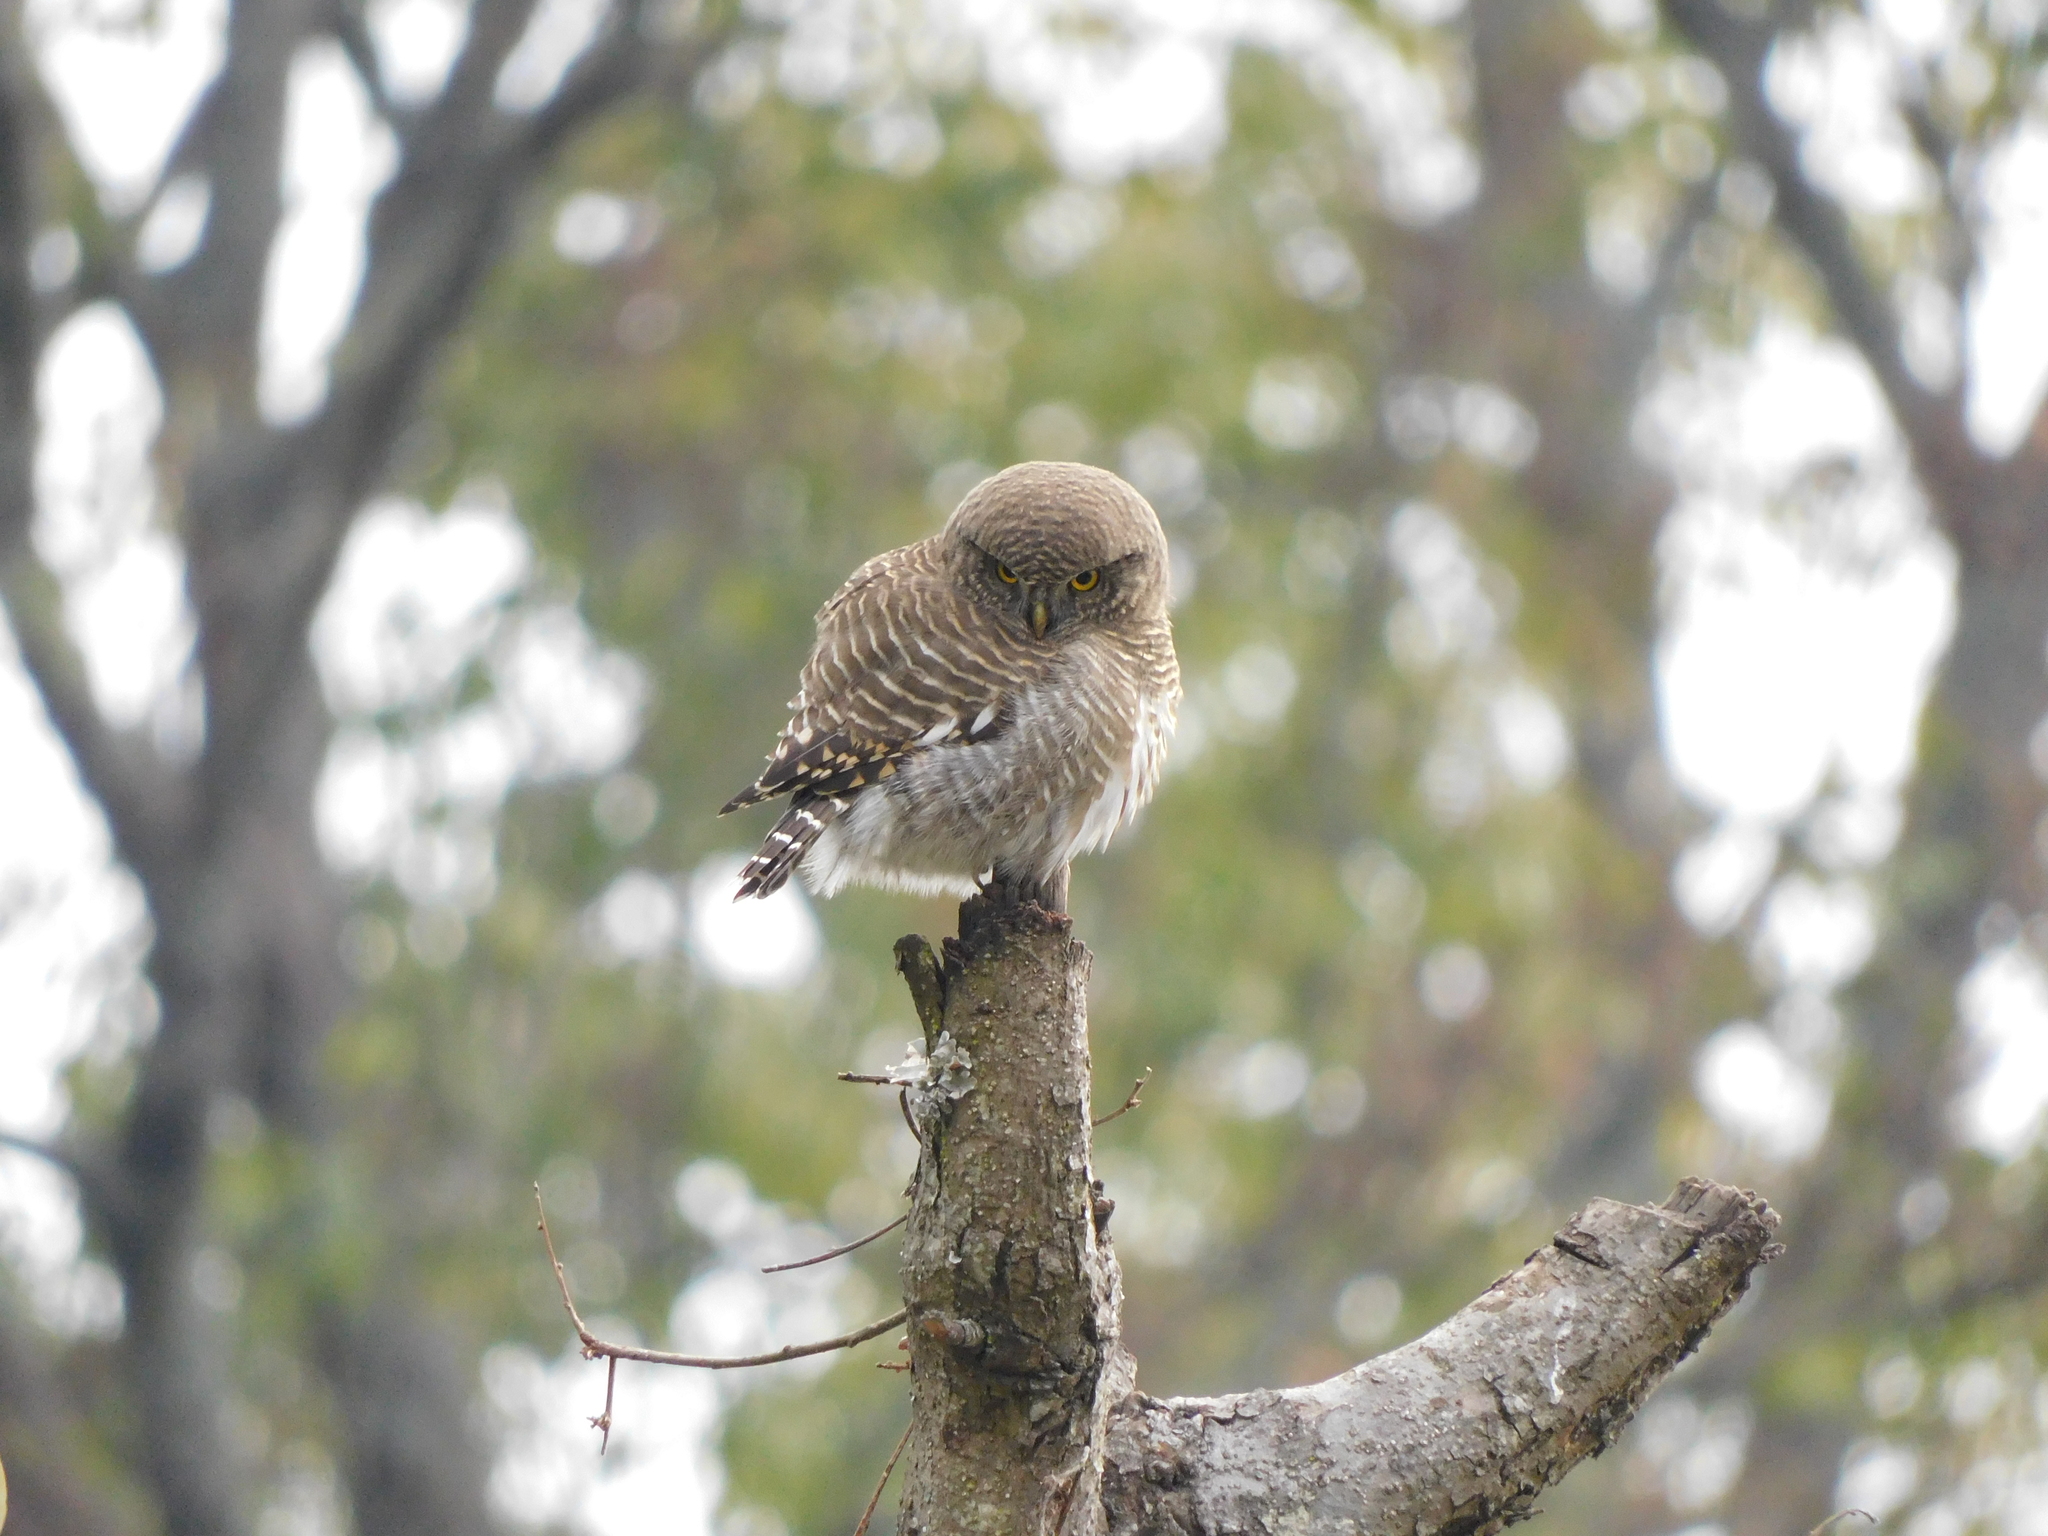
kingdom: Animalia
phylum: Chordata
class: Aves
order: Strigiformes
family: Strigidae
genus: Glaucidium
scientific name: Glaucidium cuculoides
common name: Asian barred owlet
